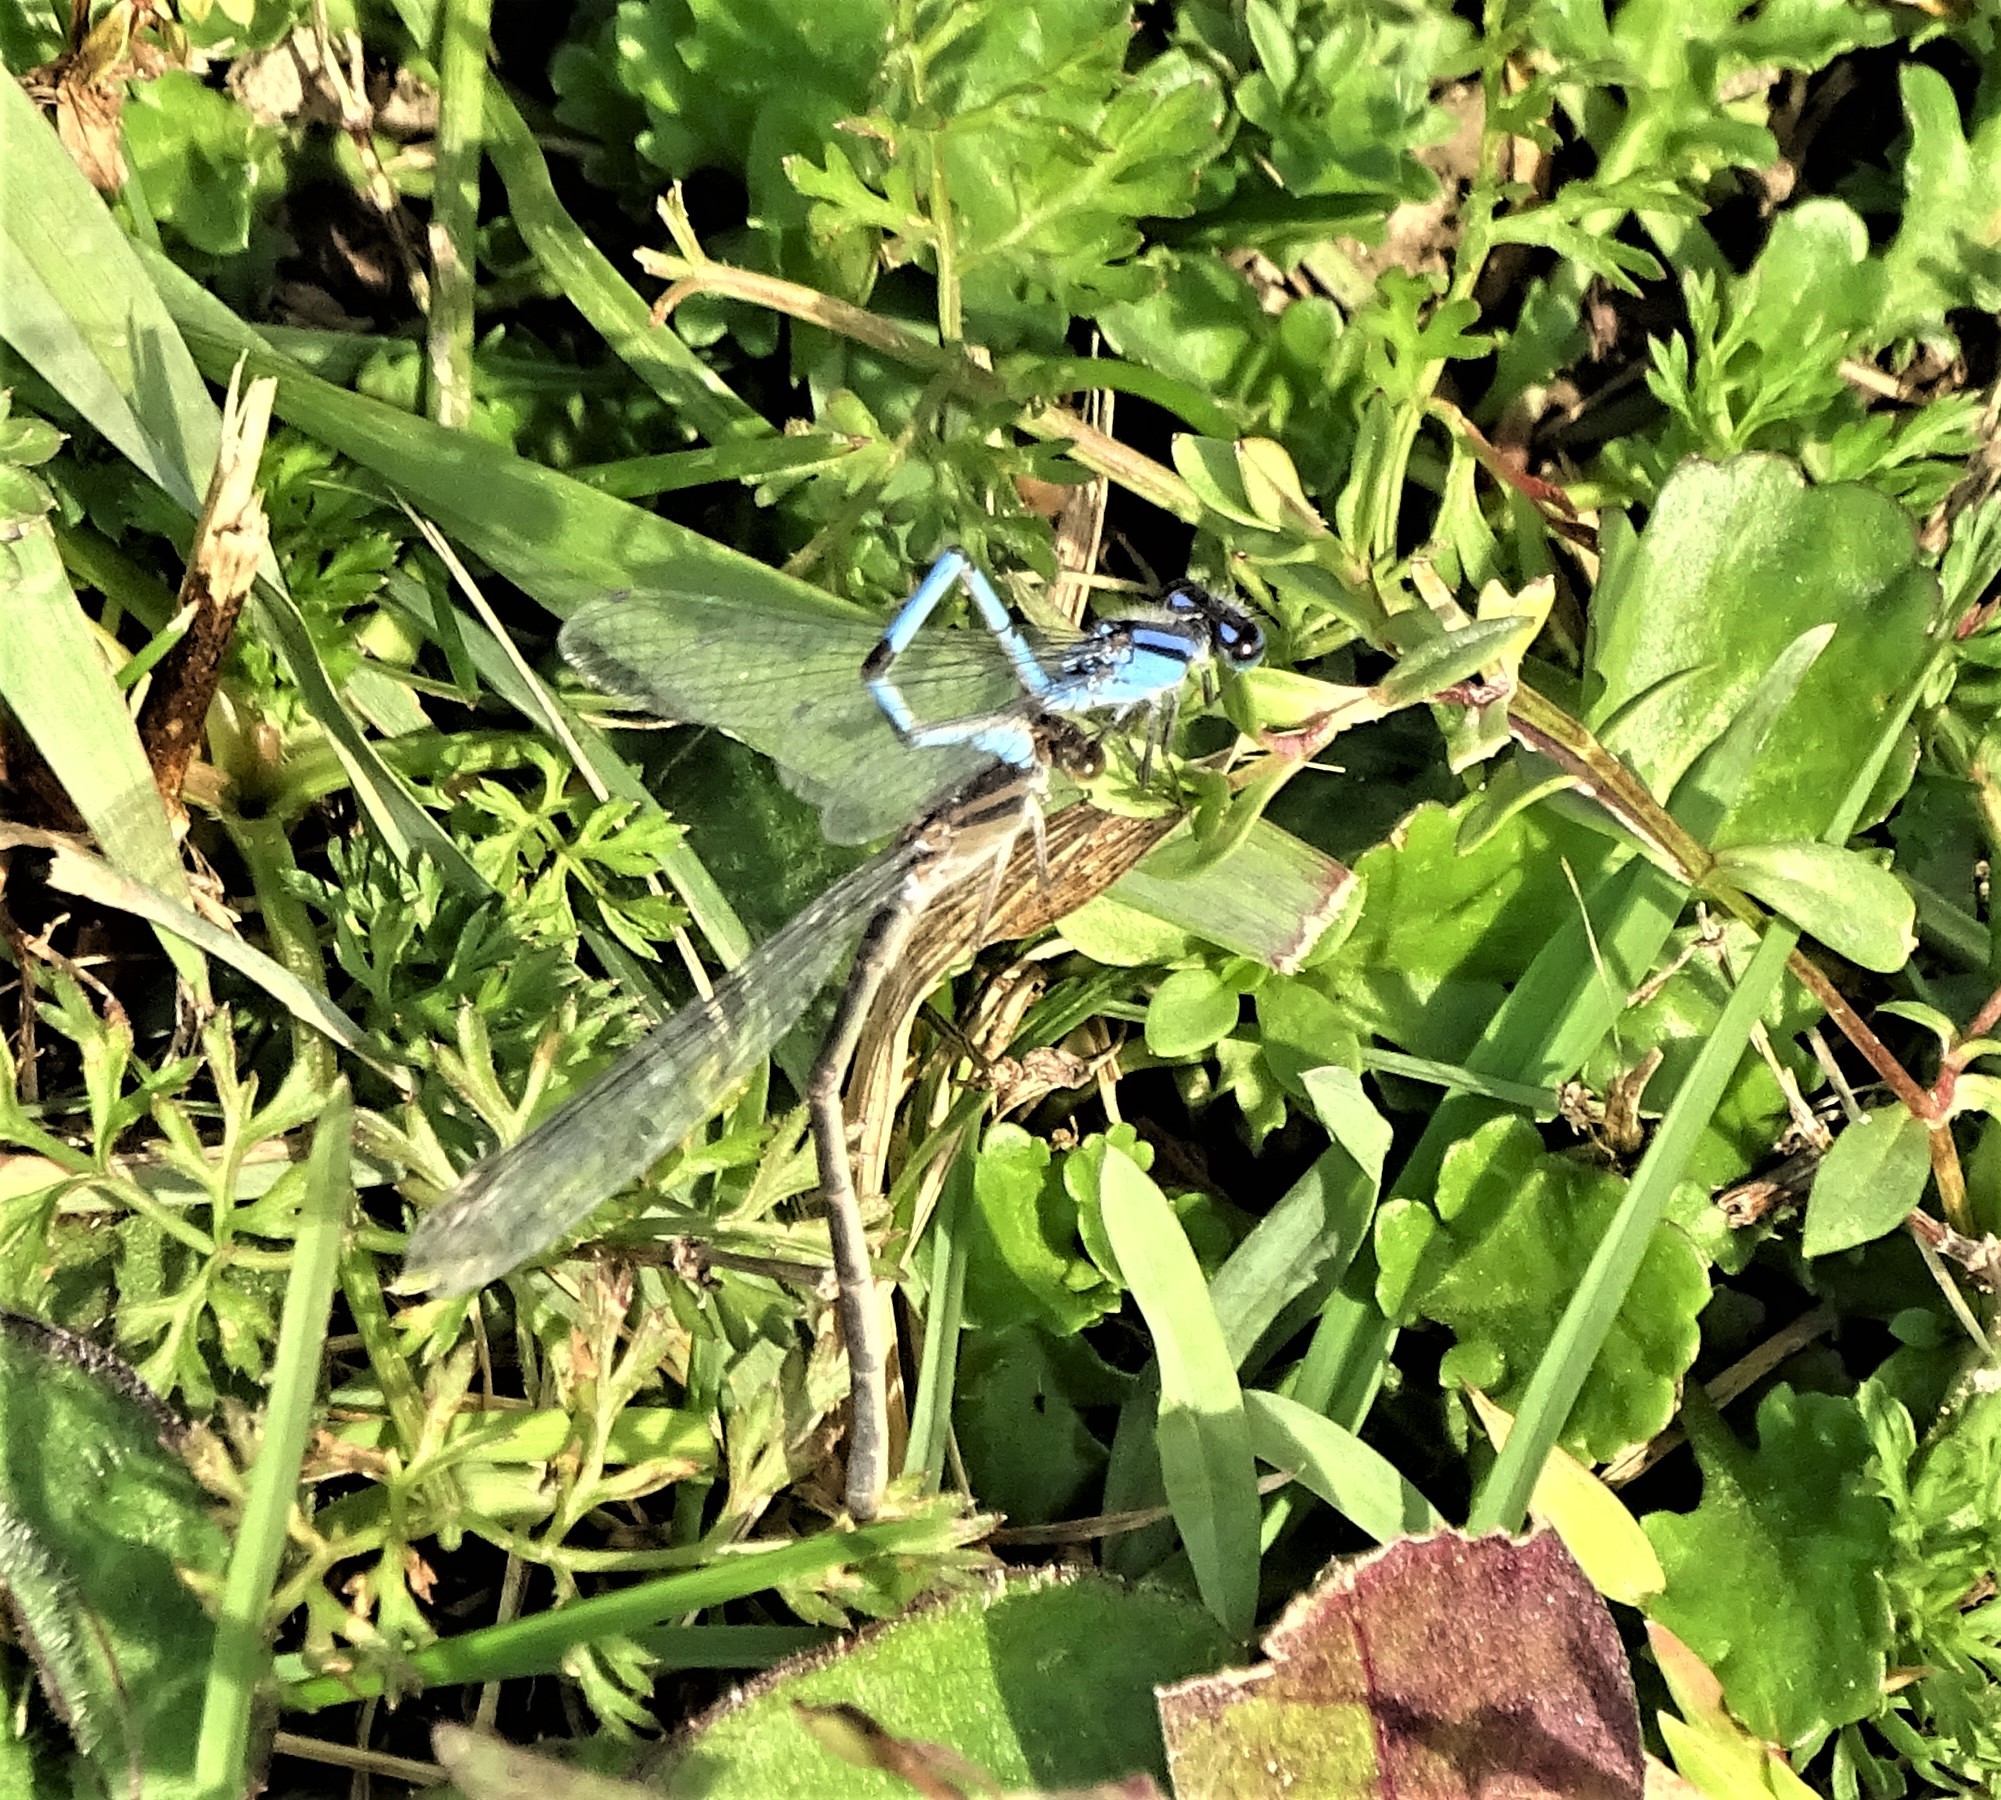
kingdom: Animalia
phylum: Arthropoda
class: Insecta
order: Odonata
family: Coenagrionidae
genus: Enallagma
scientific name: Enallagma civile
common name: Damselfly
